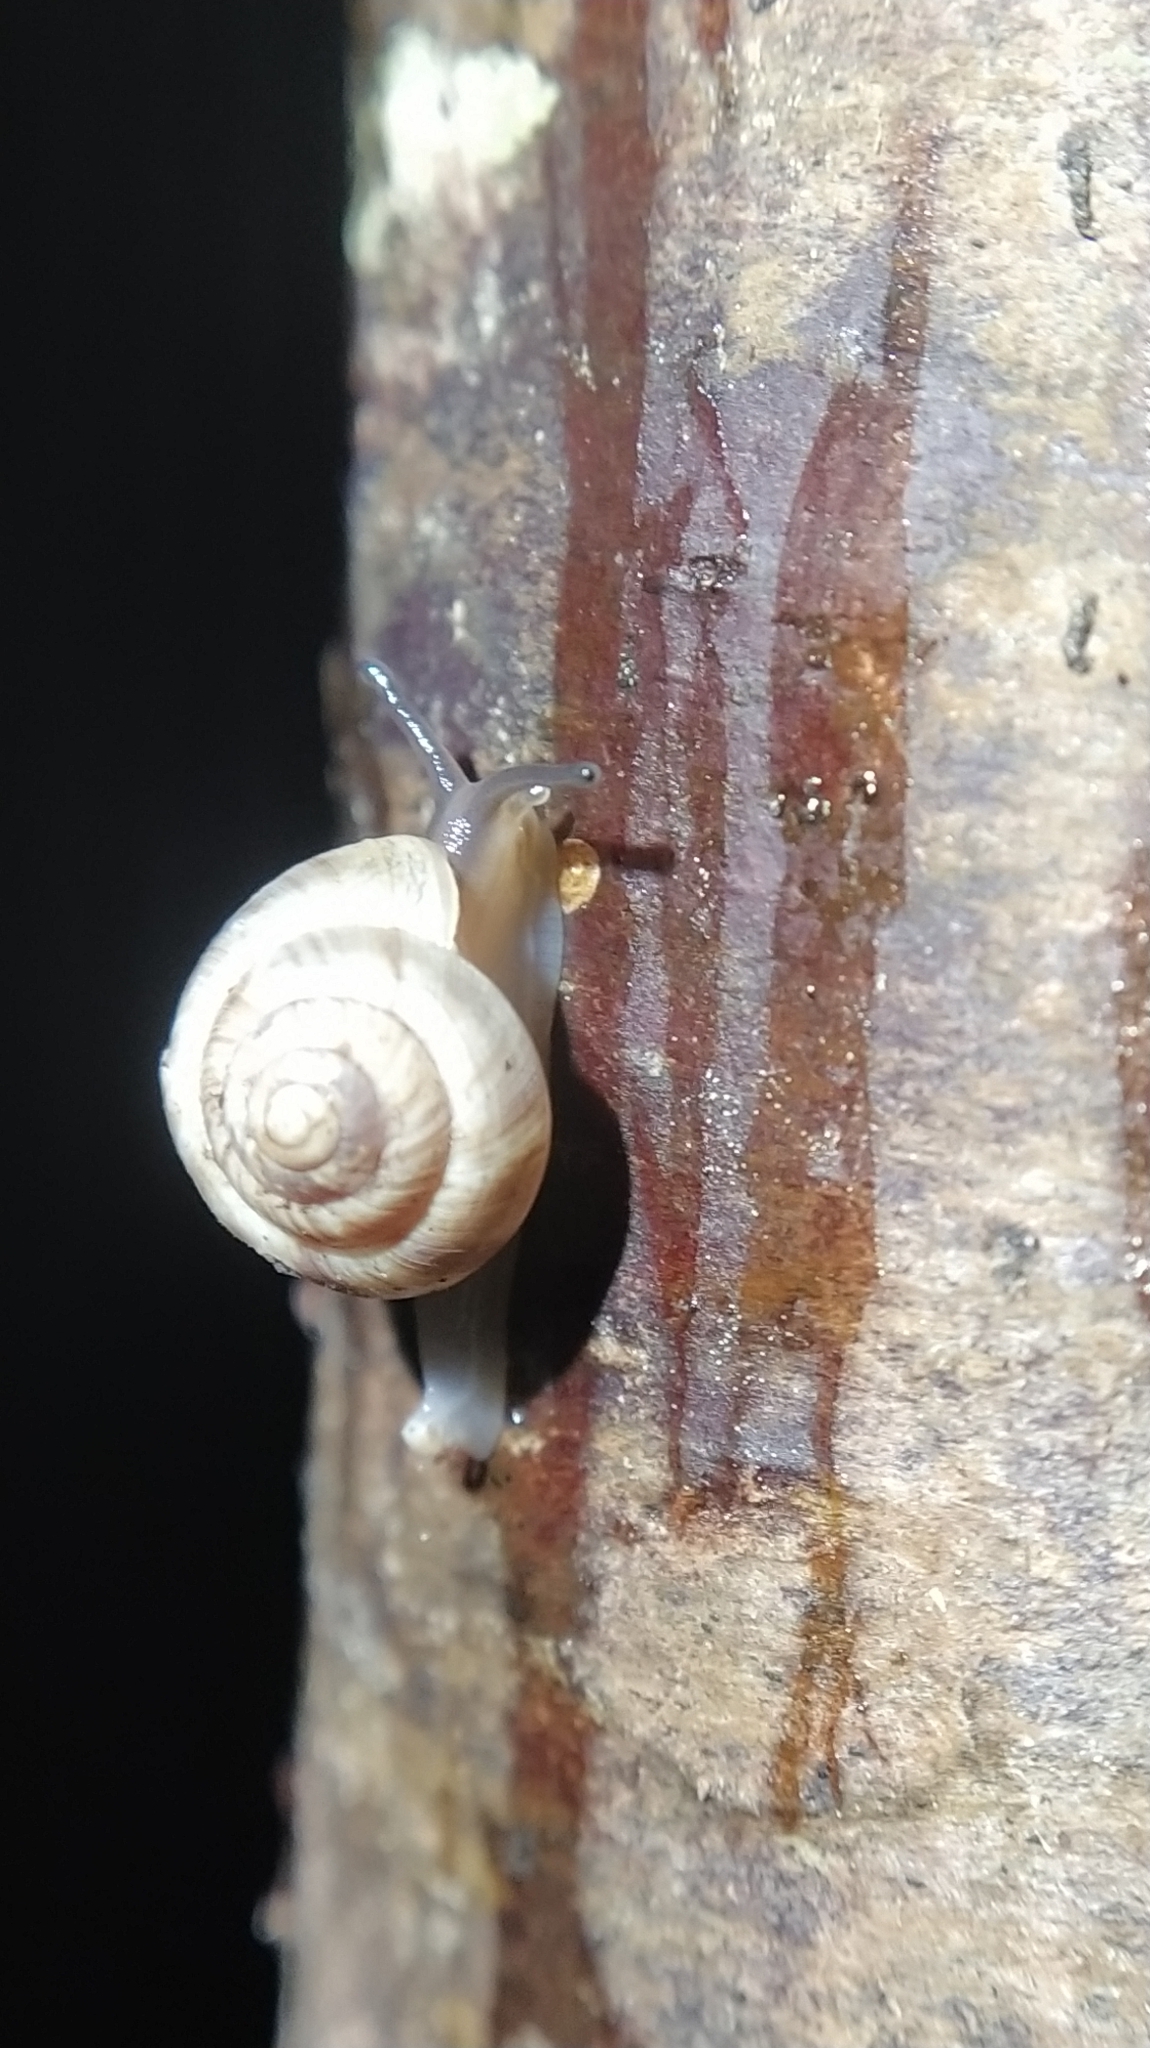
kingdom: Animalia
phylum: Mollusca
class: Gastropoda
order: Stylommatophora
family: Charopidae
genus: Serpho
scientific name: Serpho
